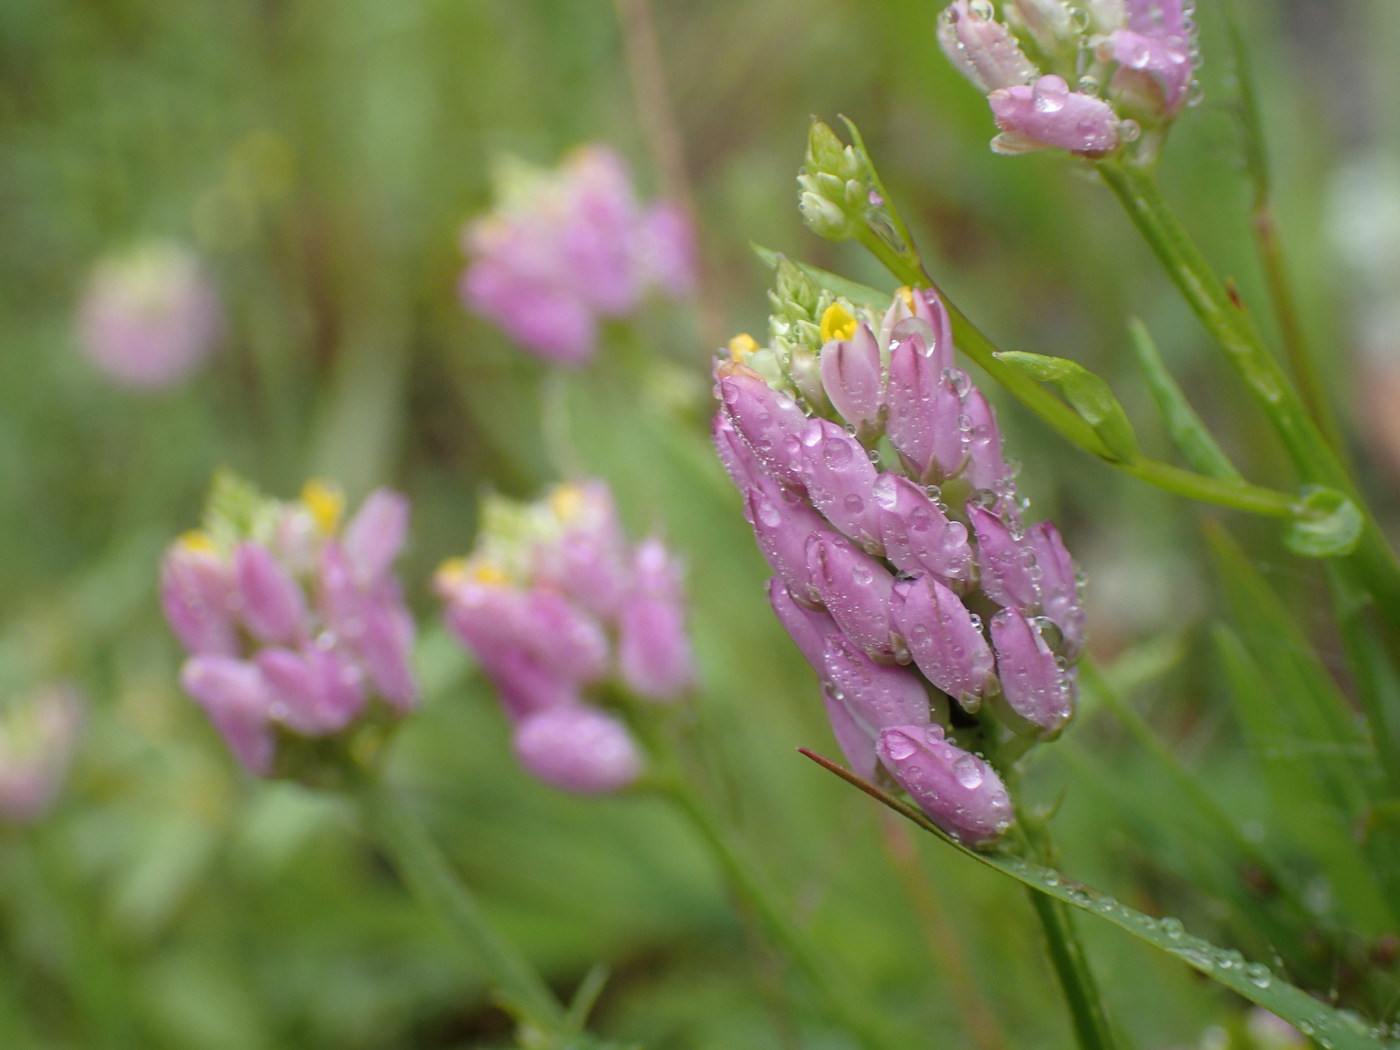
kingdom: Plantae
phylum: Tracheophyta
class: Magnoliopsida
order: Fabales
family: Polygalaceae
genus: Polygala
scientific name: Polygala curtissii
